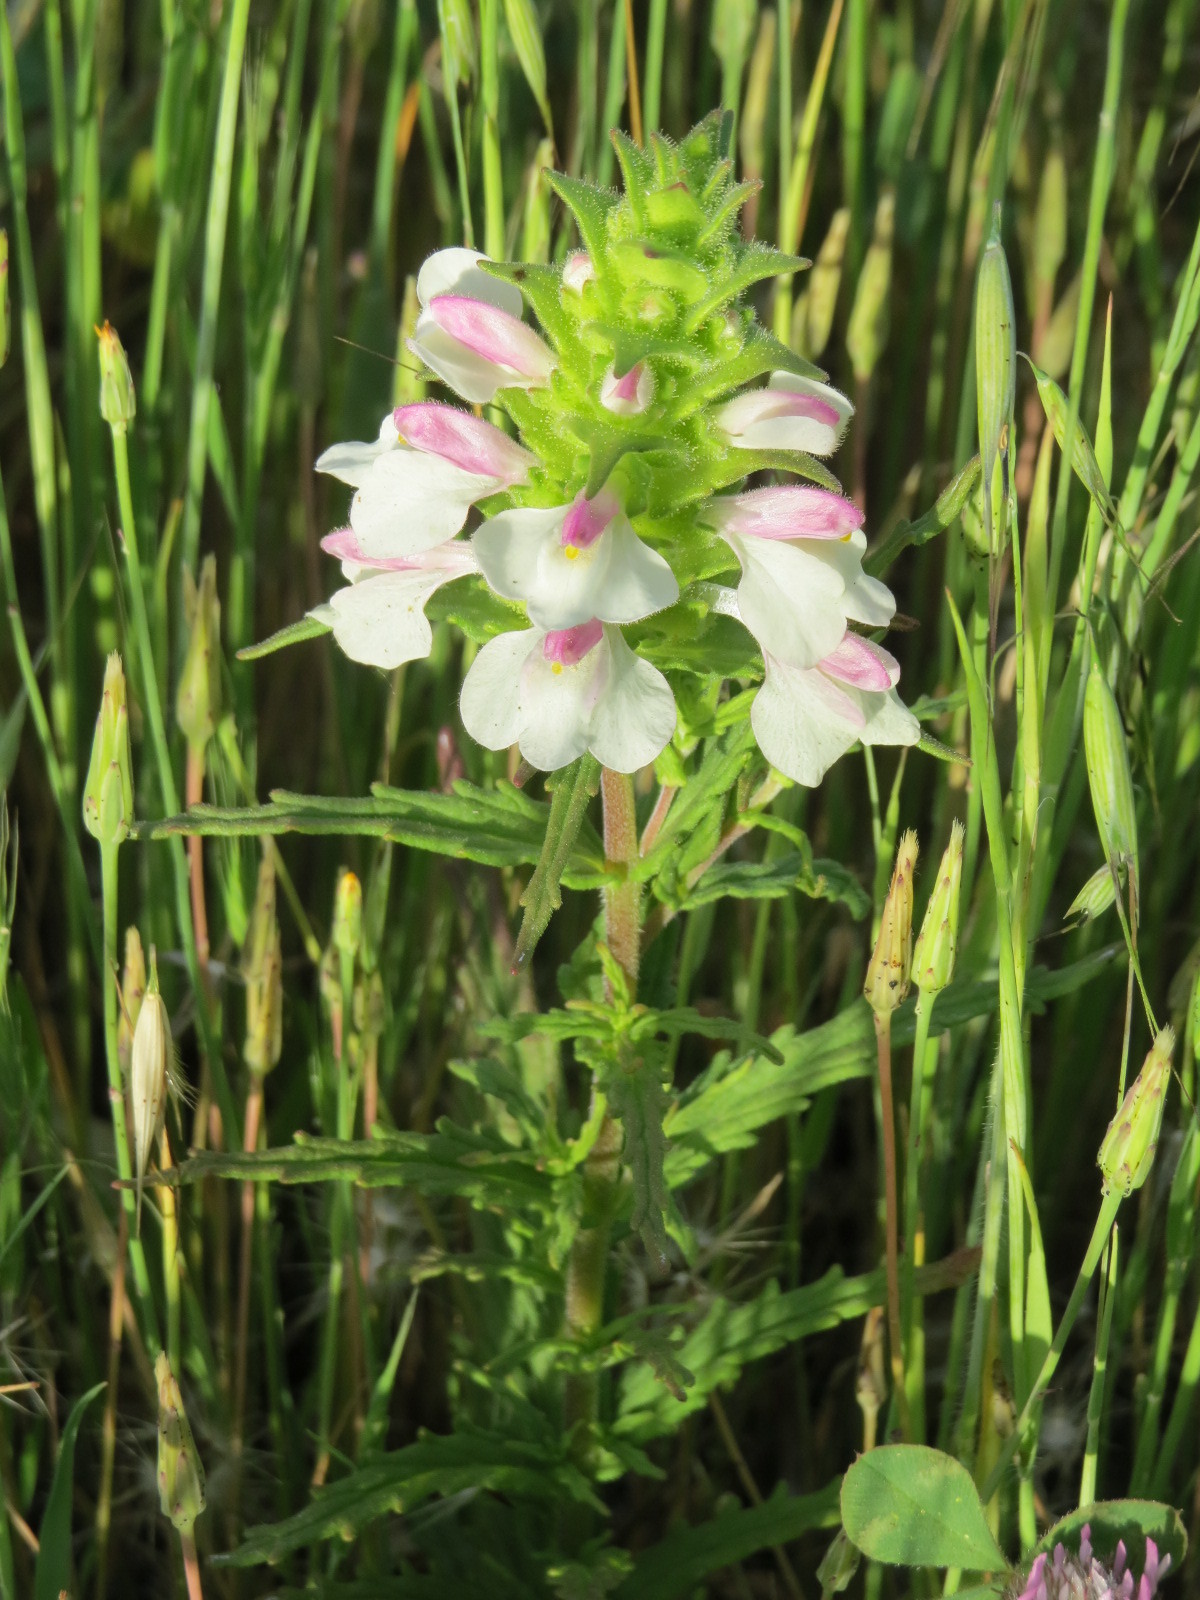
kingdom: Plantae
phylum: Tracheophyta
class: Magnoliopsida
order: Lamiales
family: Orobanchaceae
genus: Bellardia
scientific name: Bellardia trixago
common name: Mediterranean lineseed
